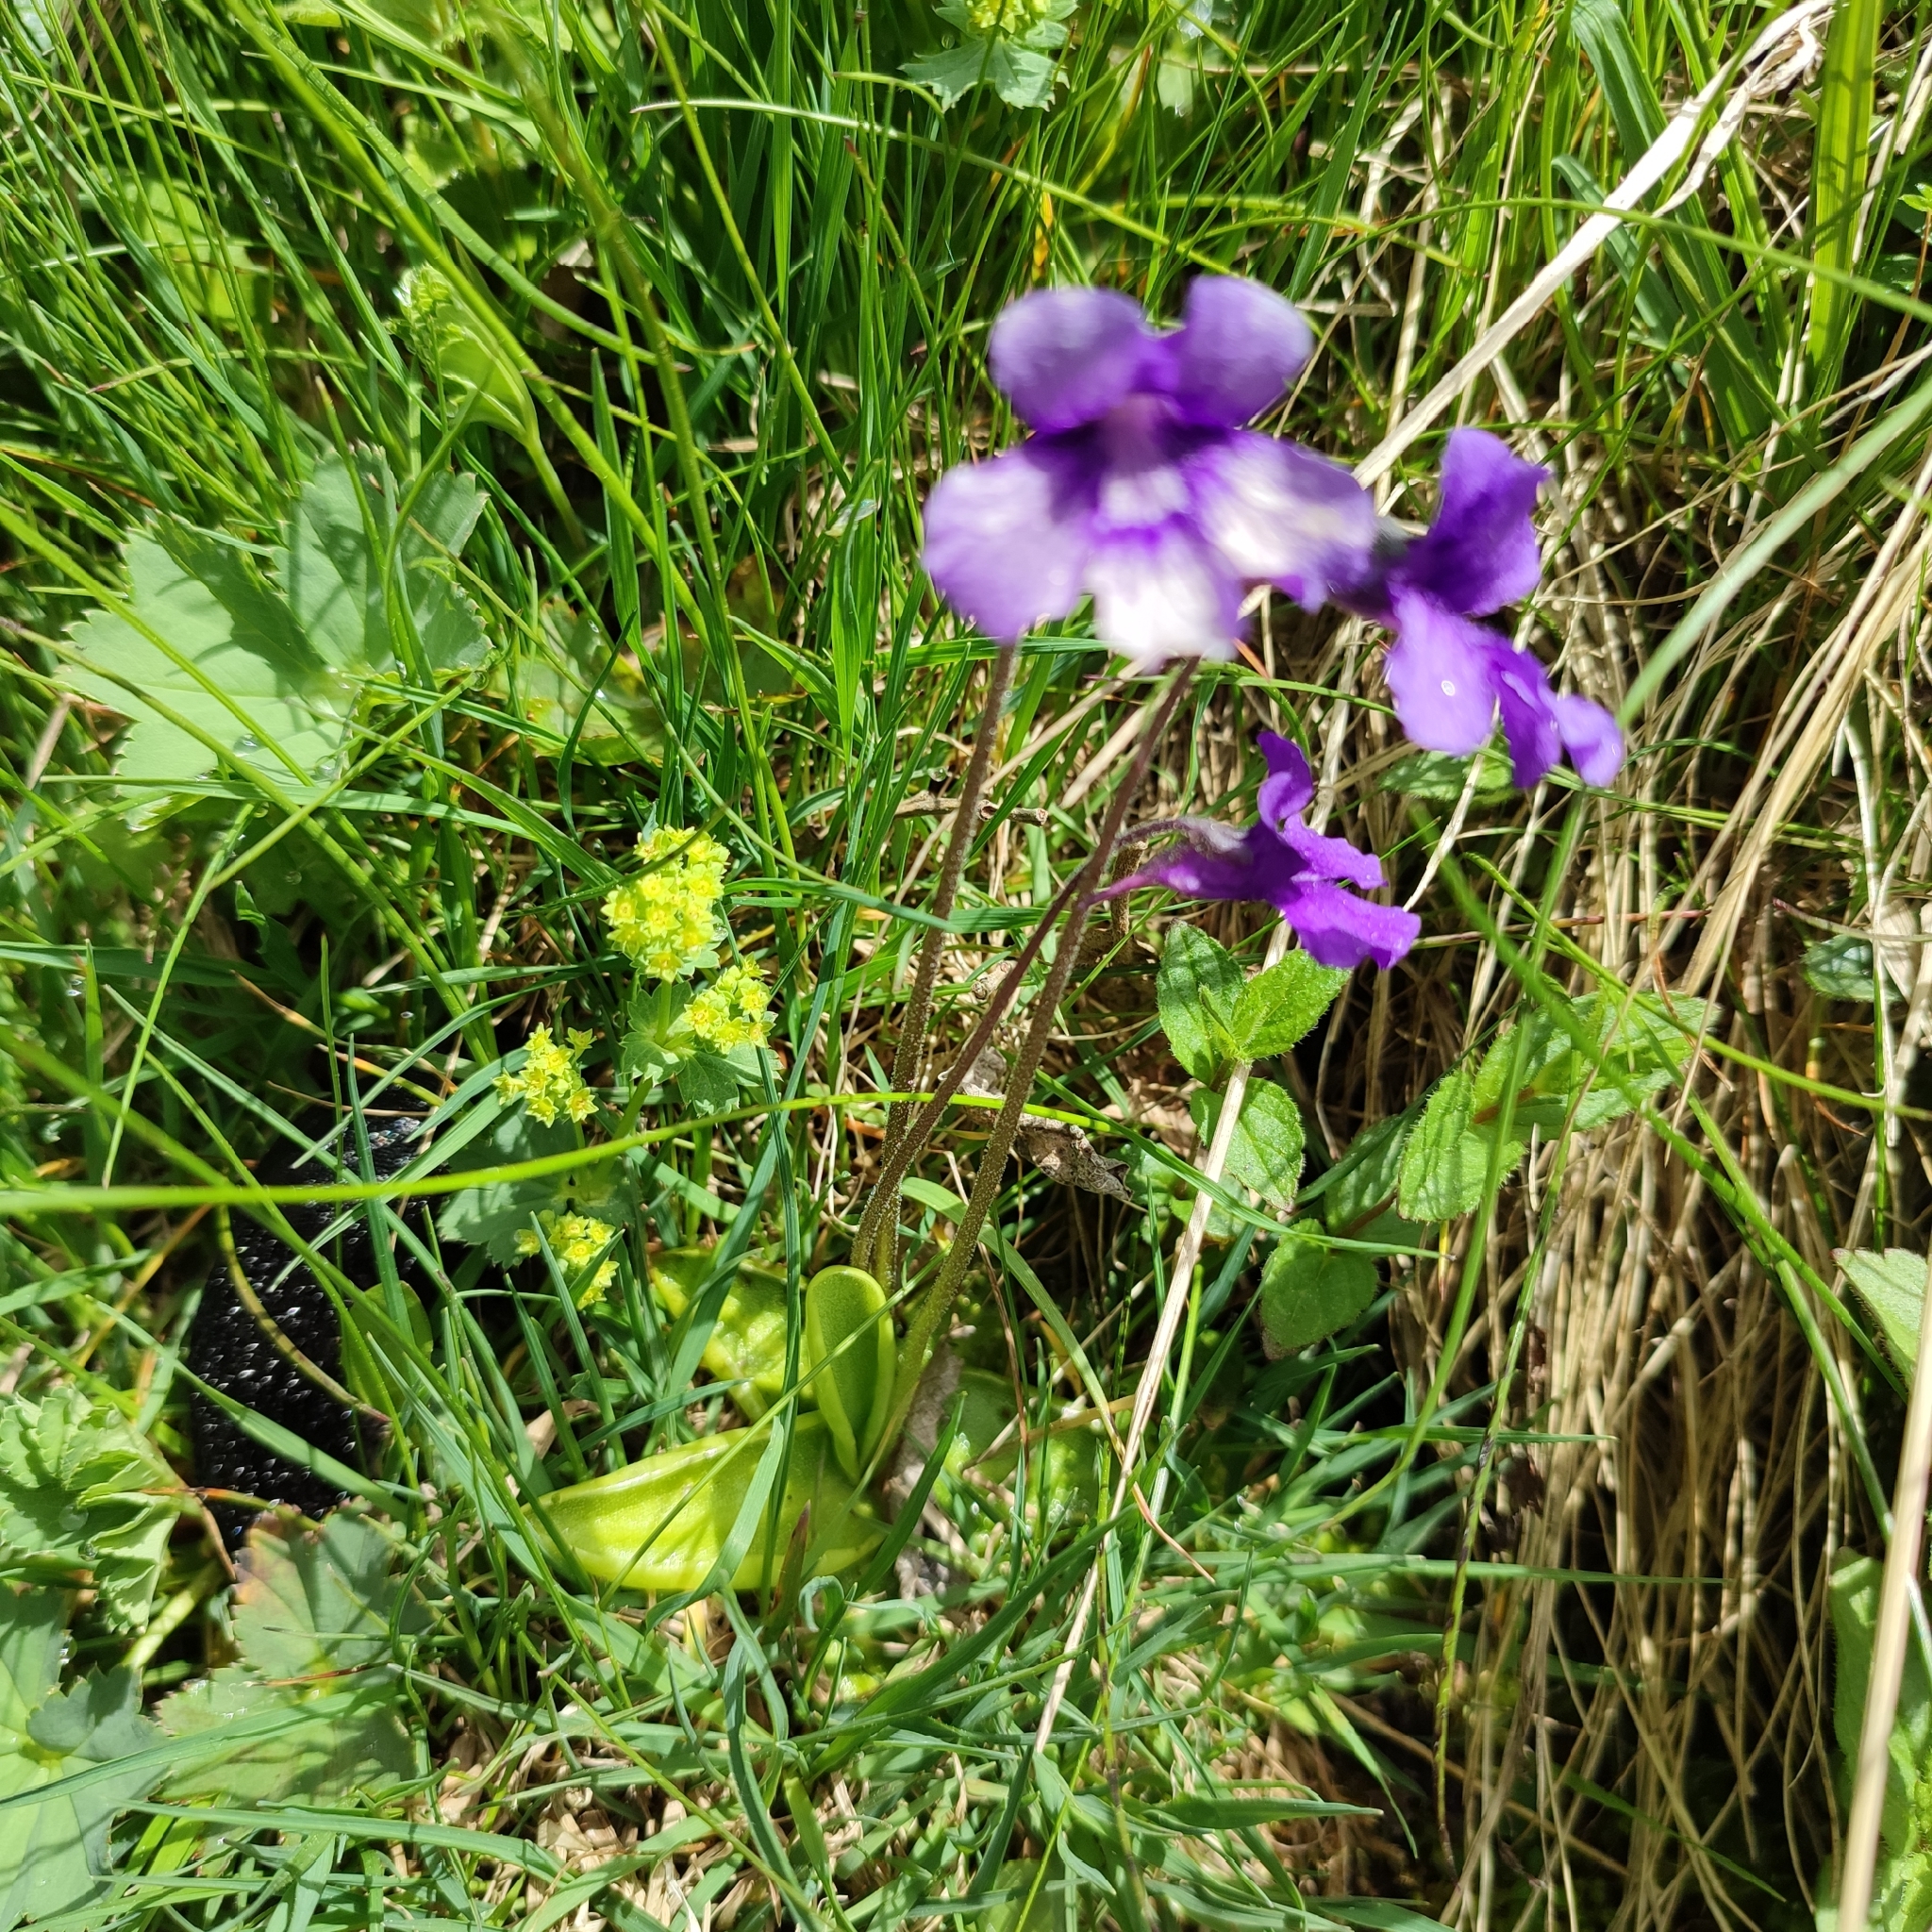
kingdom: Plantae
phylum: Tracheophyta
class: Magnoliopsida
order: Lamiales
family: Lentibulariaceae
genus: Pinguicula
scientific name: Pinguicula grandiflora
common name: Large-flowered butterwort
